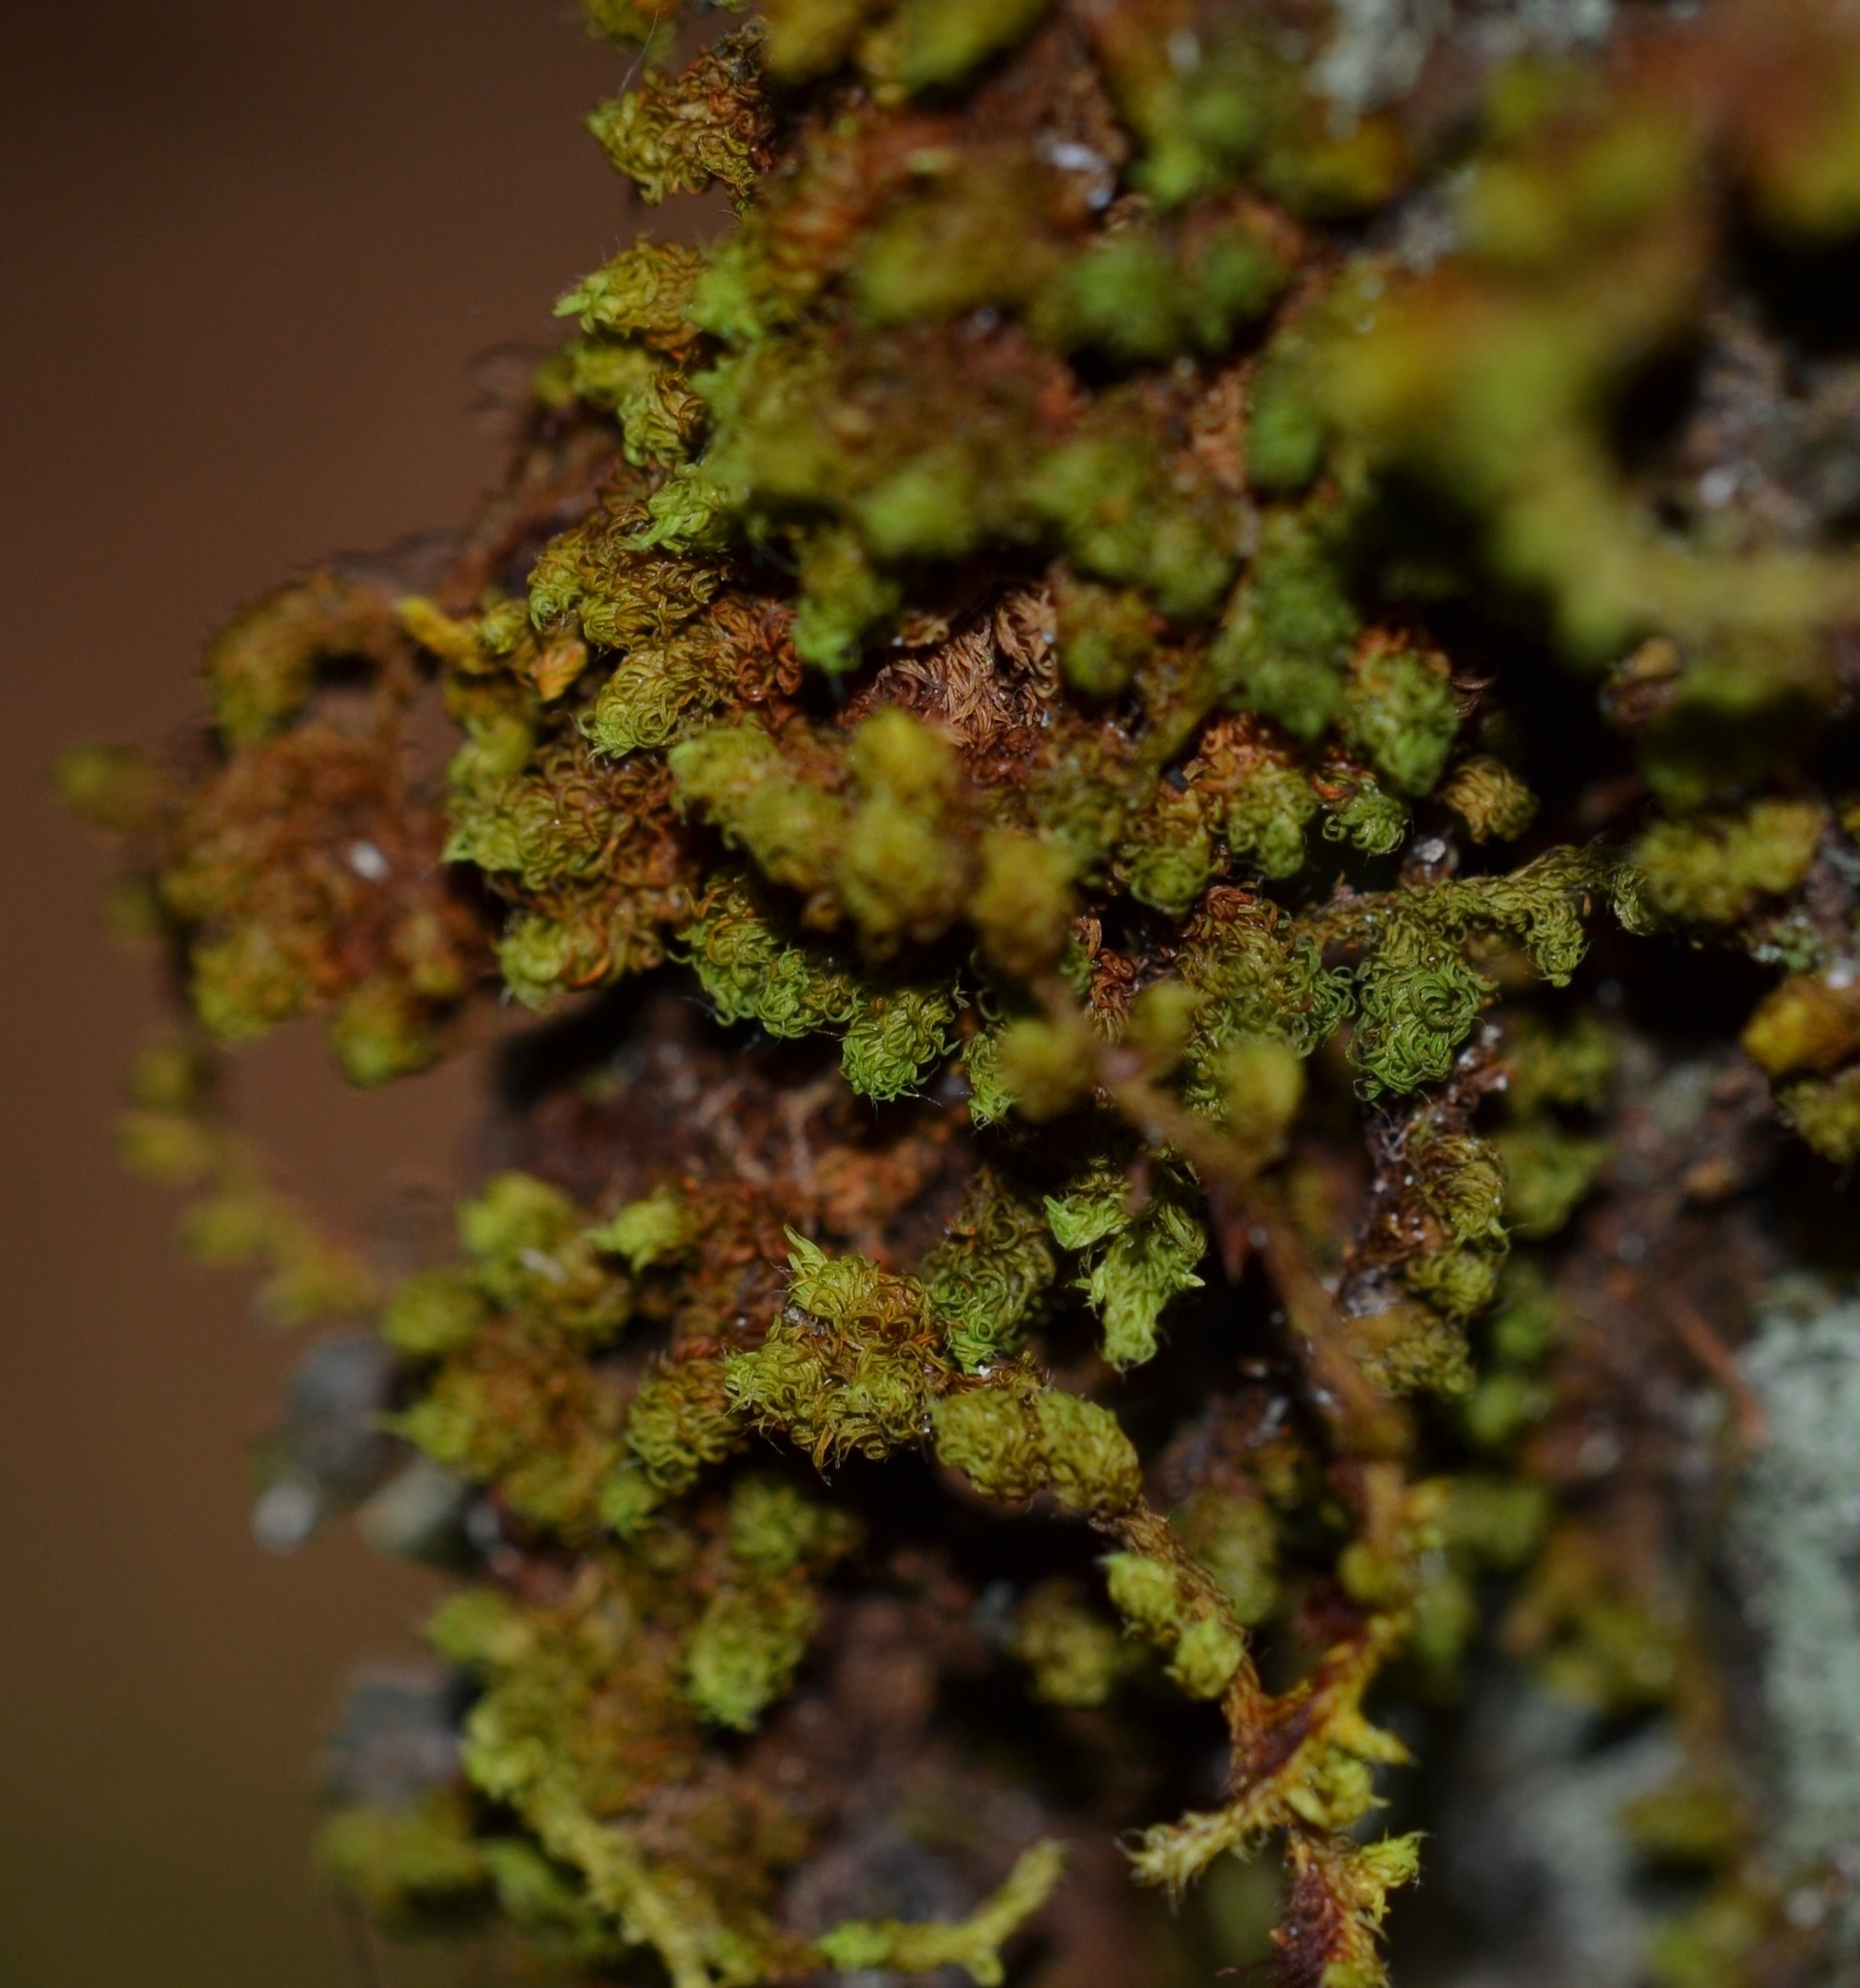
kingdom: Plantae
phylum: Bryophyta
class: Bryopsida
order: Orthotrichales
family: Orthotrichaceae
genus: Macromitrium
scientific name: Macromitrium piliferum
